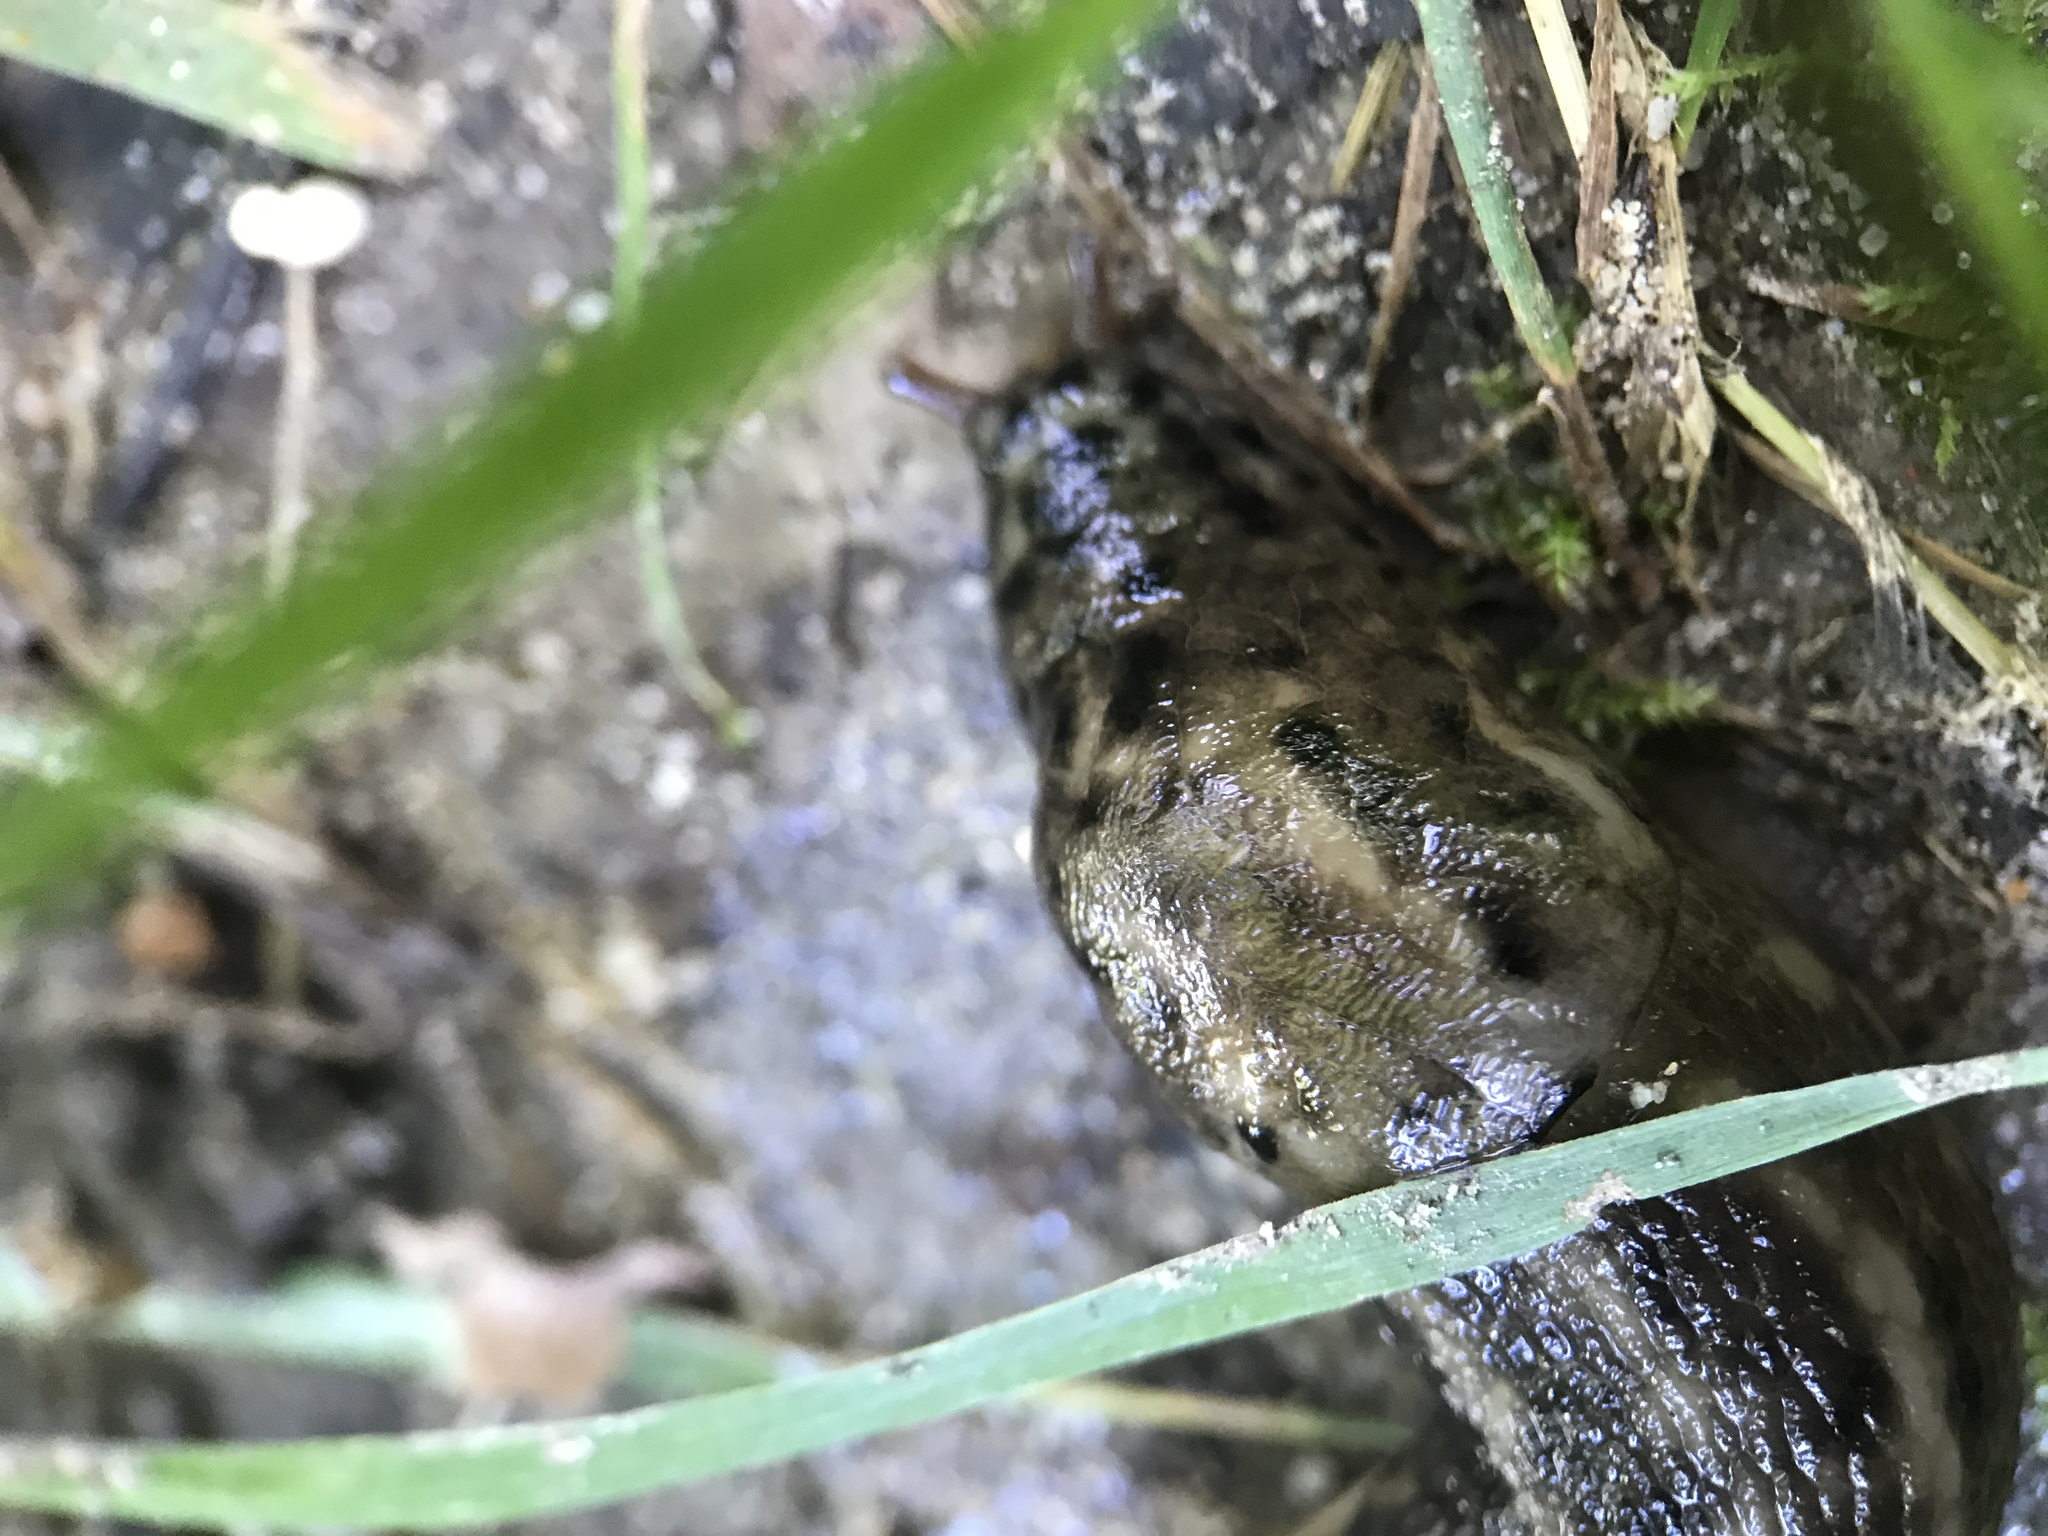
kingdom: Animalia
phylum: Mollusca
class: Gastropoda
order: Stylommatophora
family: Limacidae
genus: Limax
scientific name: Limax maximus
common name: Great grey slug
